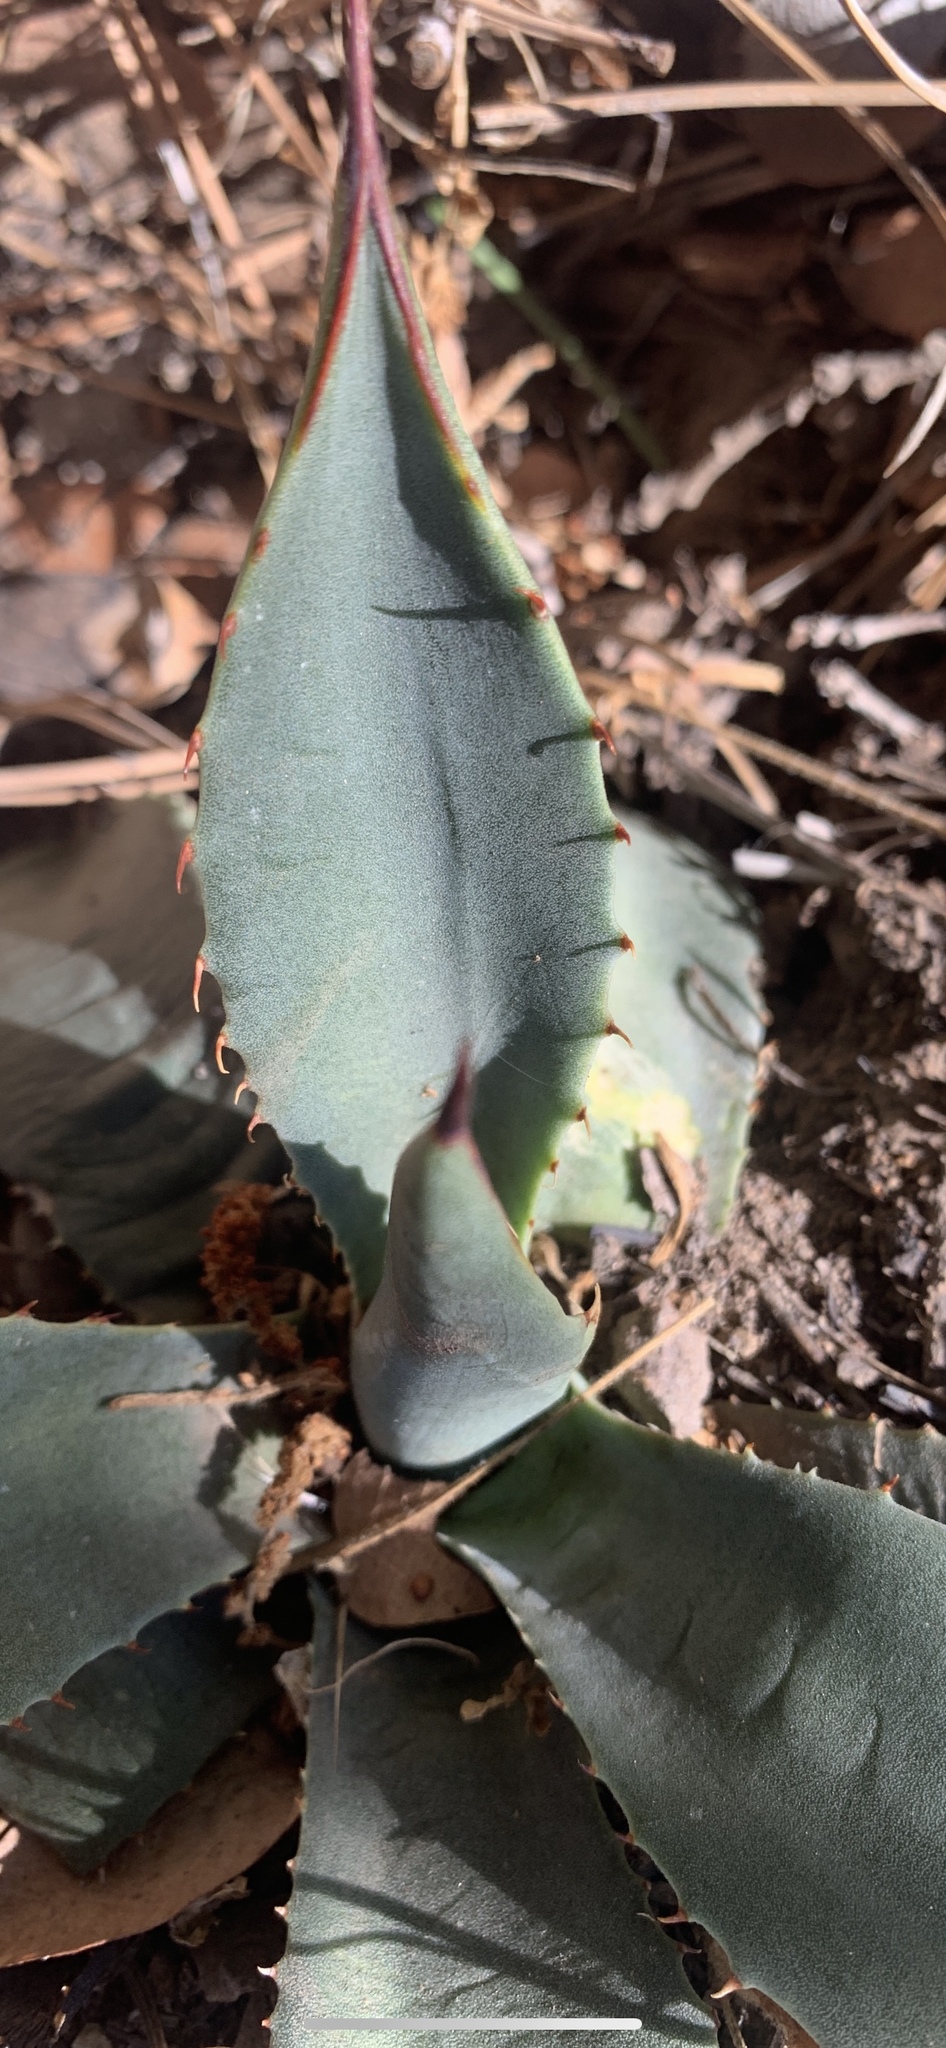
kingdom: Plantae
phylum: Tracheophyta
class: Liliopsida
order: Asparagales
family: Asparagaceae
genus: Agave
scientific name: Agave parryi
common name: Parry's agave
